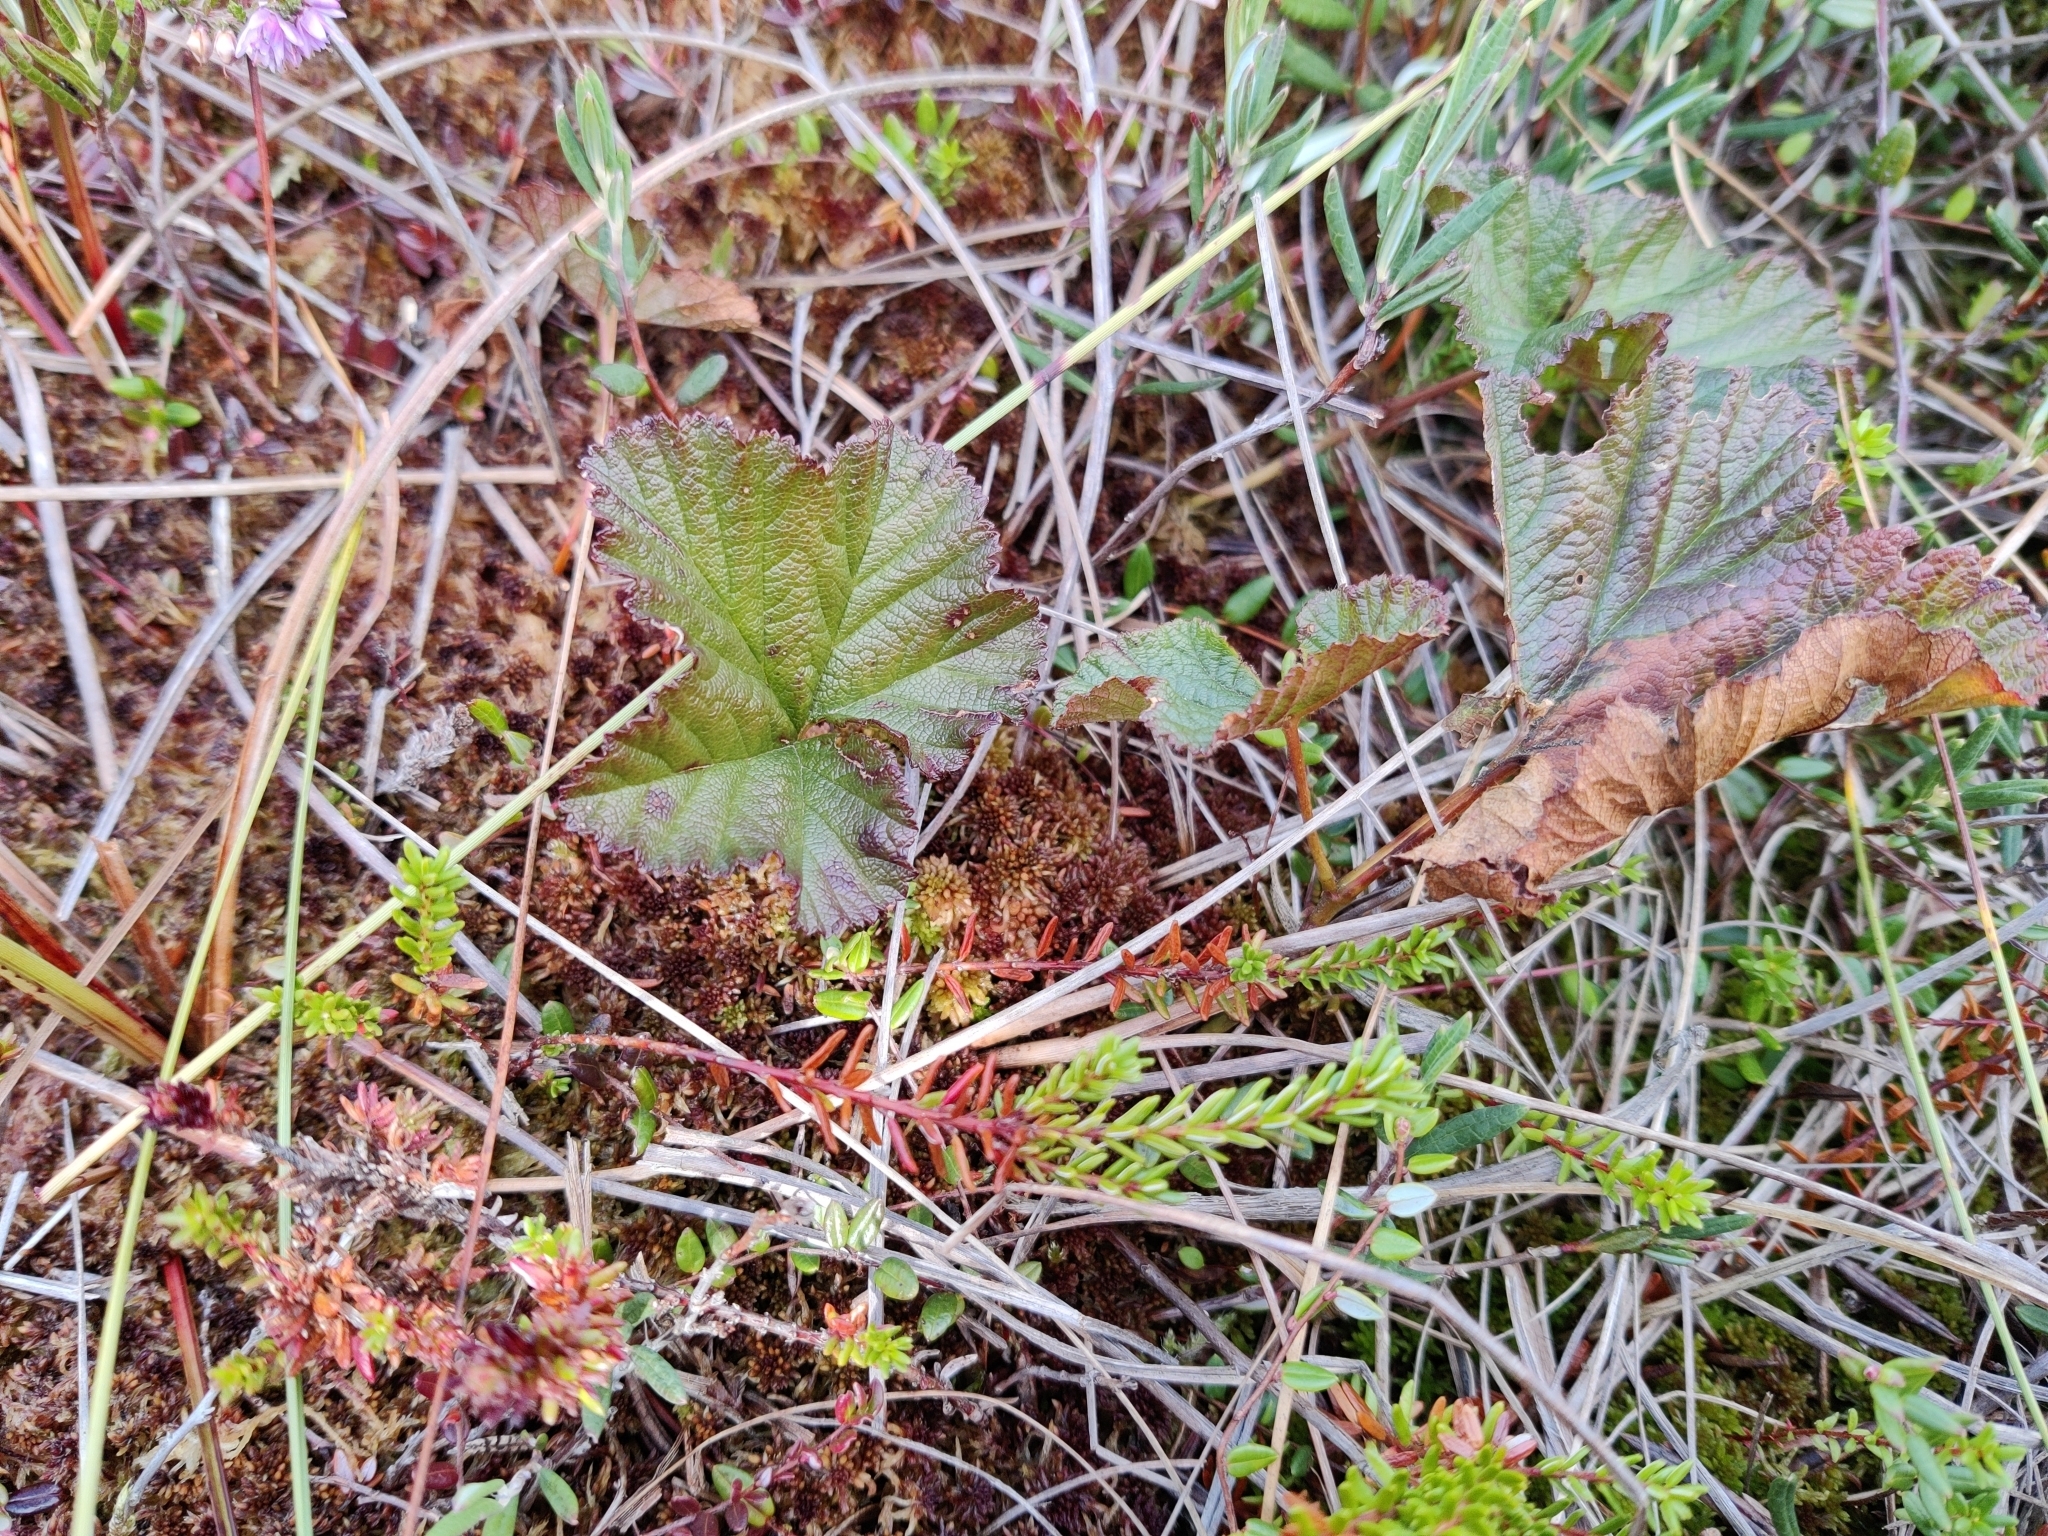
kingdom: Plantae
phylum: Tracheophyta
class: Magnoliopsida
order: Rosales
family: Rosaceae
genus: Rubus
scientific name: Rubus chamaemorus
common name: Cloudberry
